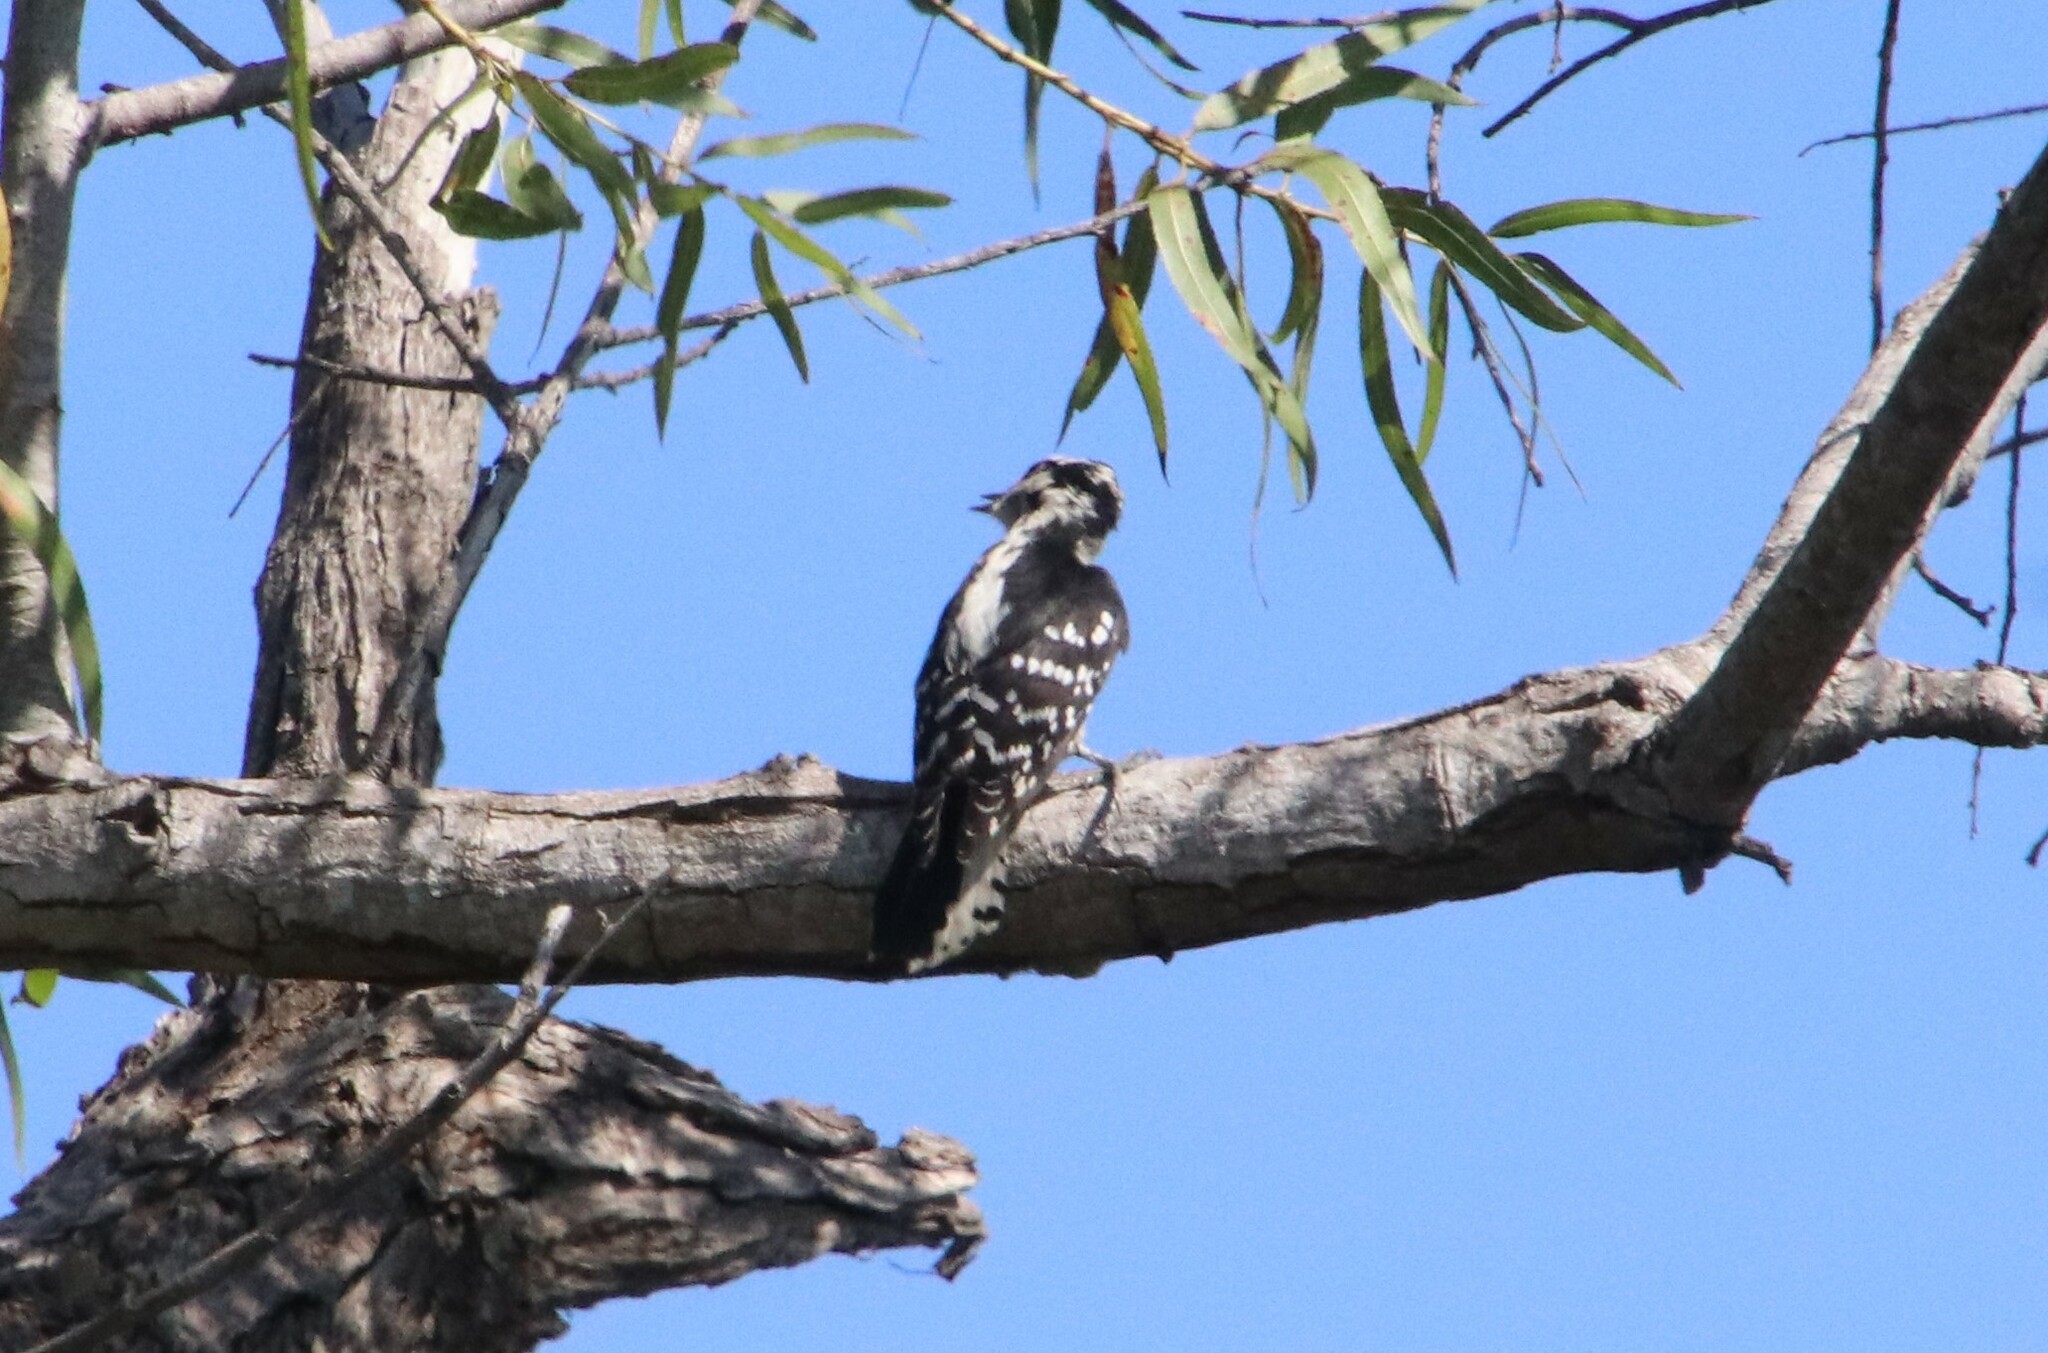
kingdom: Animalia
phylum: Chordata
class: Aves
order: Piciformes
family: Picidae
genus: Dryobates
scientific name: Dryobates pubescens
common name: Downy woodpecker
